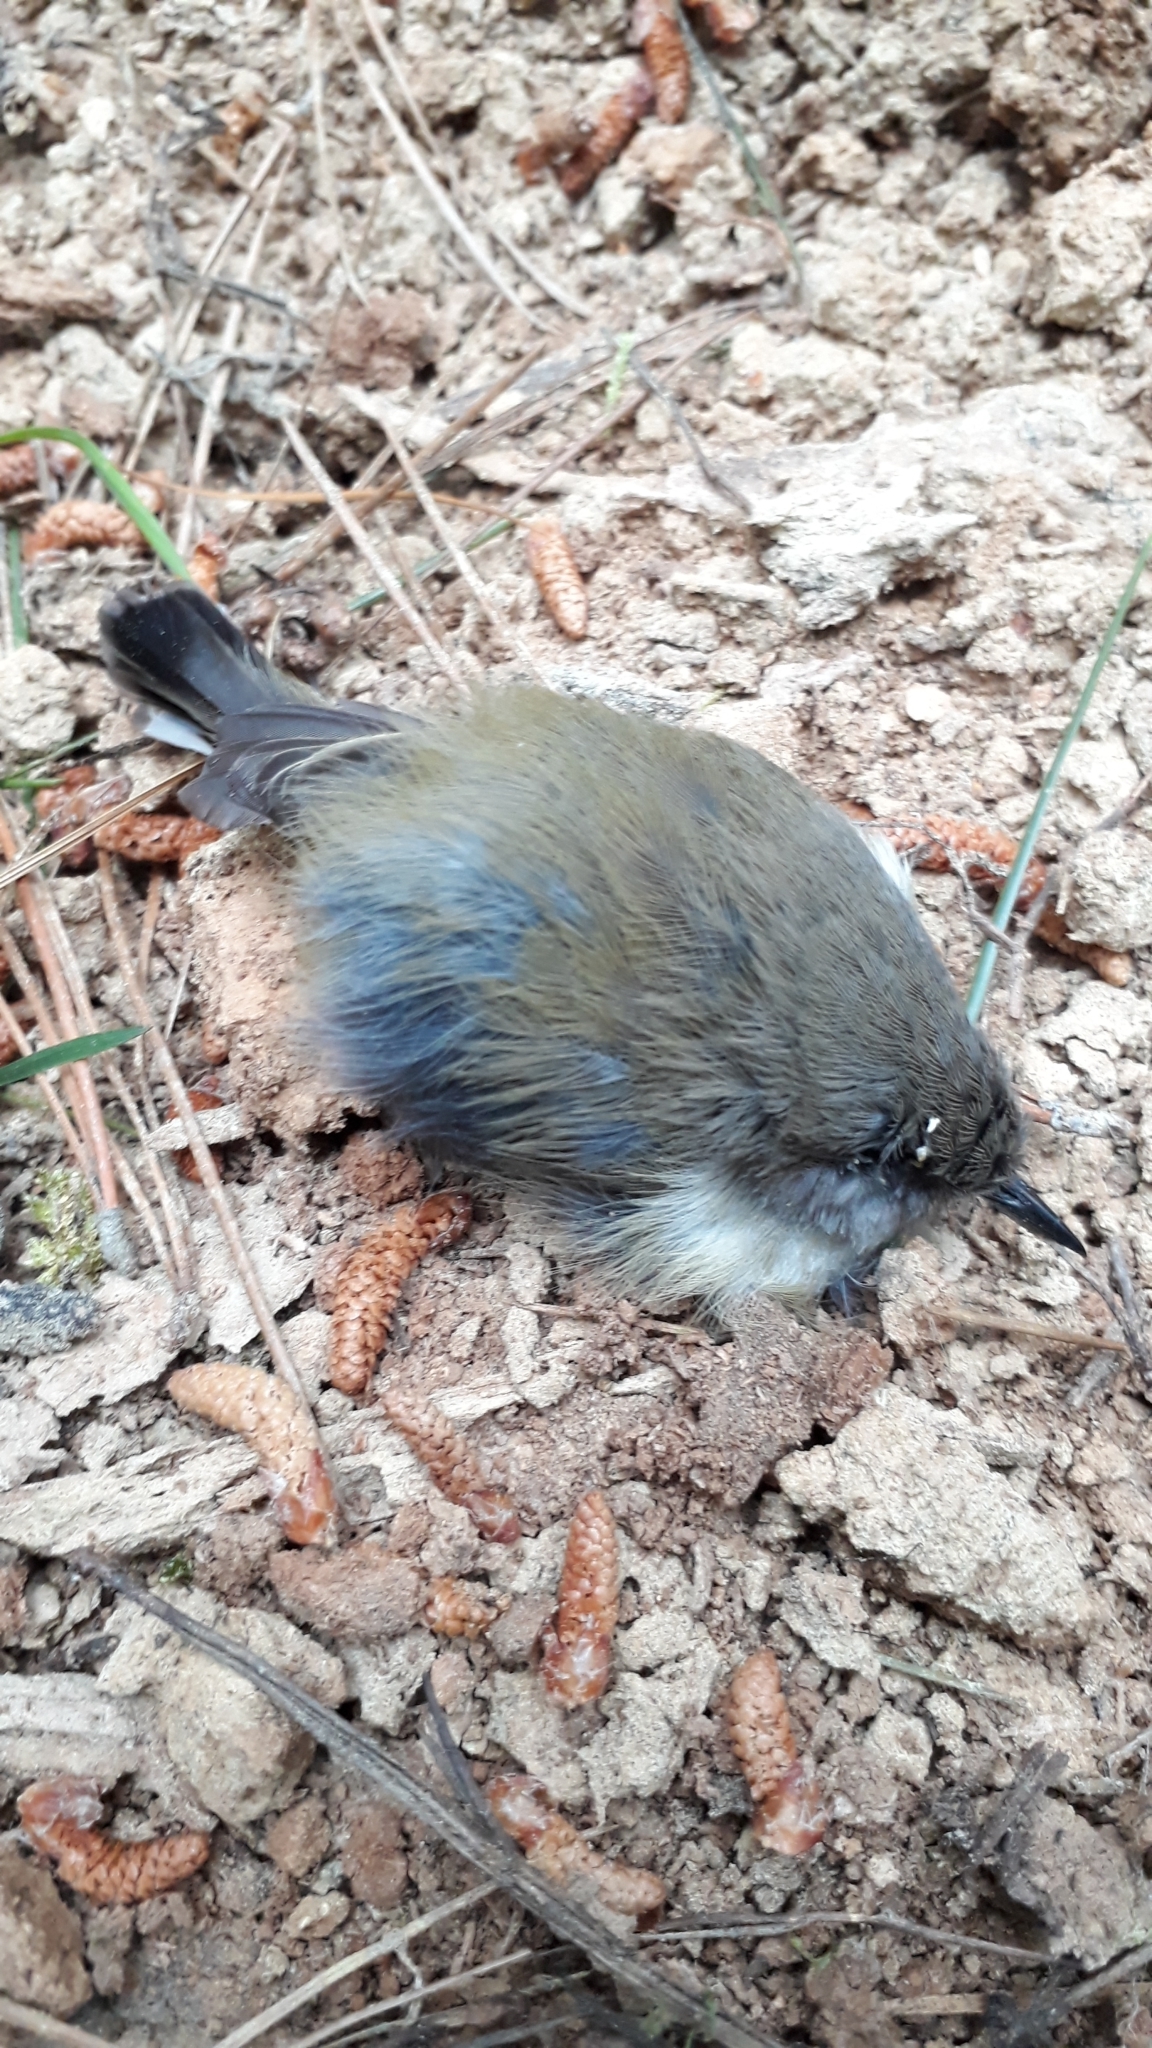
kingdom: Animalia
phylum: Chordata
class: Aves
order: Passeriformes
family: Acanthizidae
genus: Gerygone
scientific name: Gerygone igata
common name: Grey gerygone
